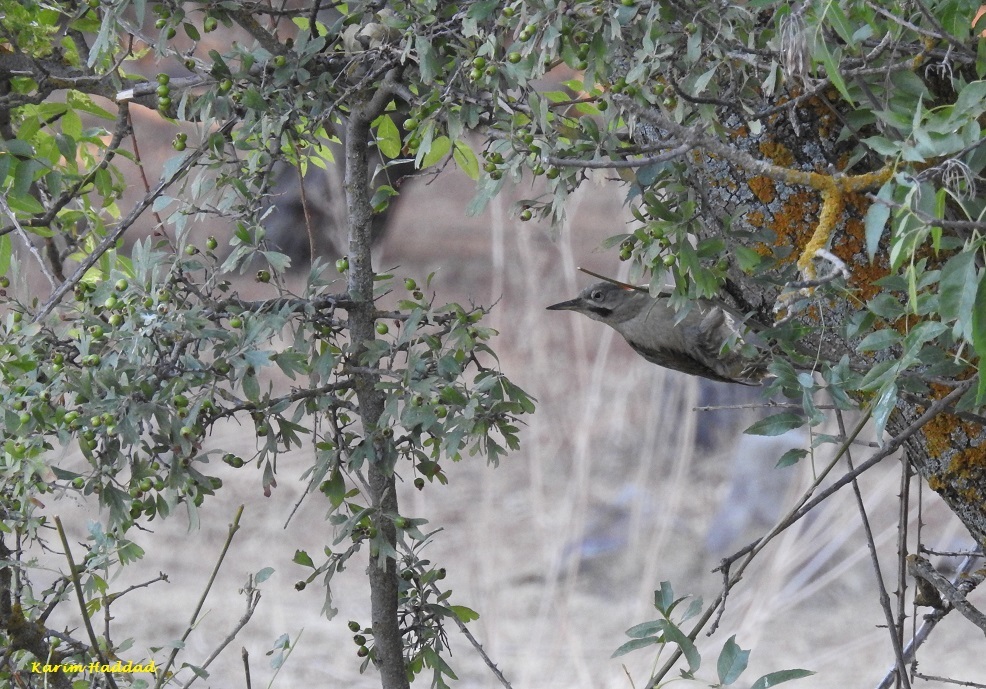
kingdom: Animalia
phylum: Chordata
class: Aves
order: Piciformes
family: Picidae
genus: Picus
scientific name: Picus vaillantii
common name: Levaillant's woodpecker
